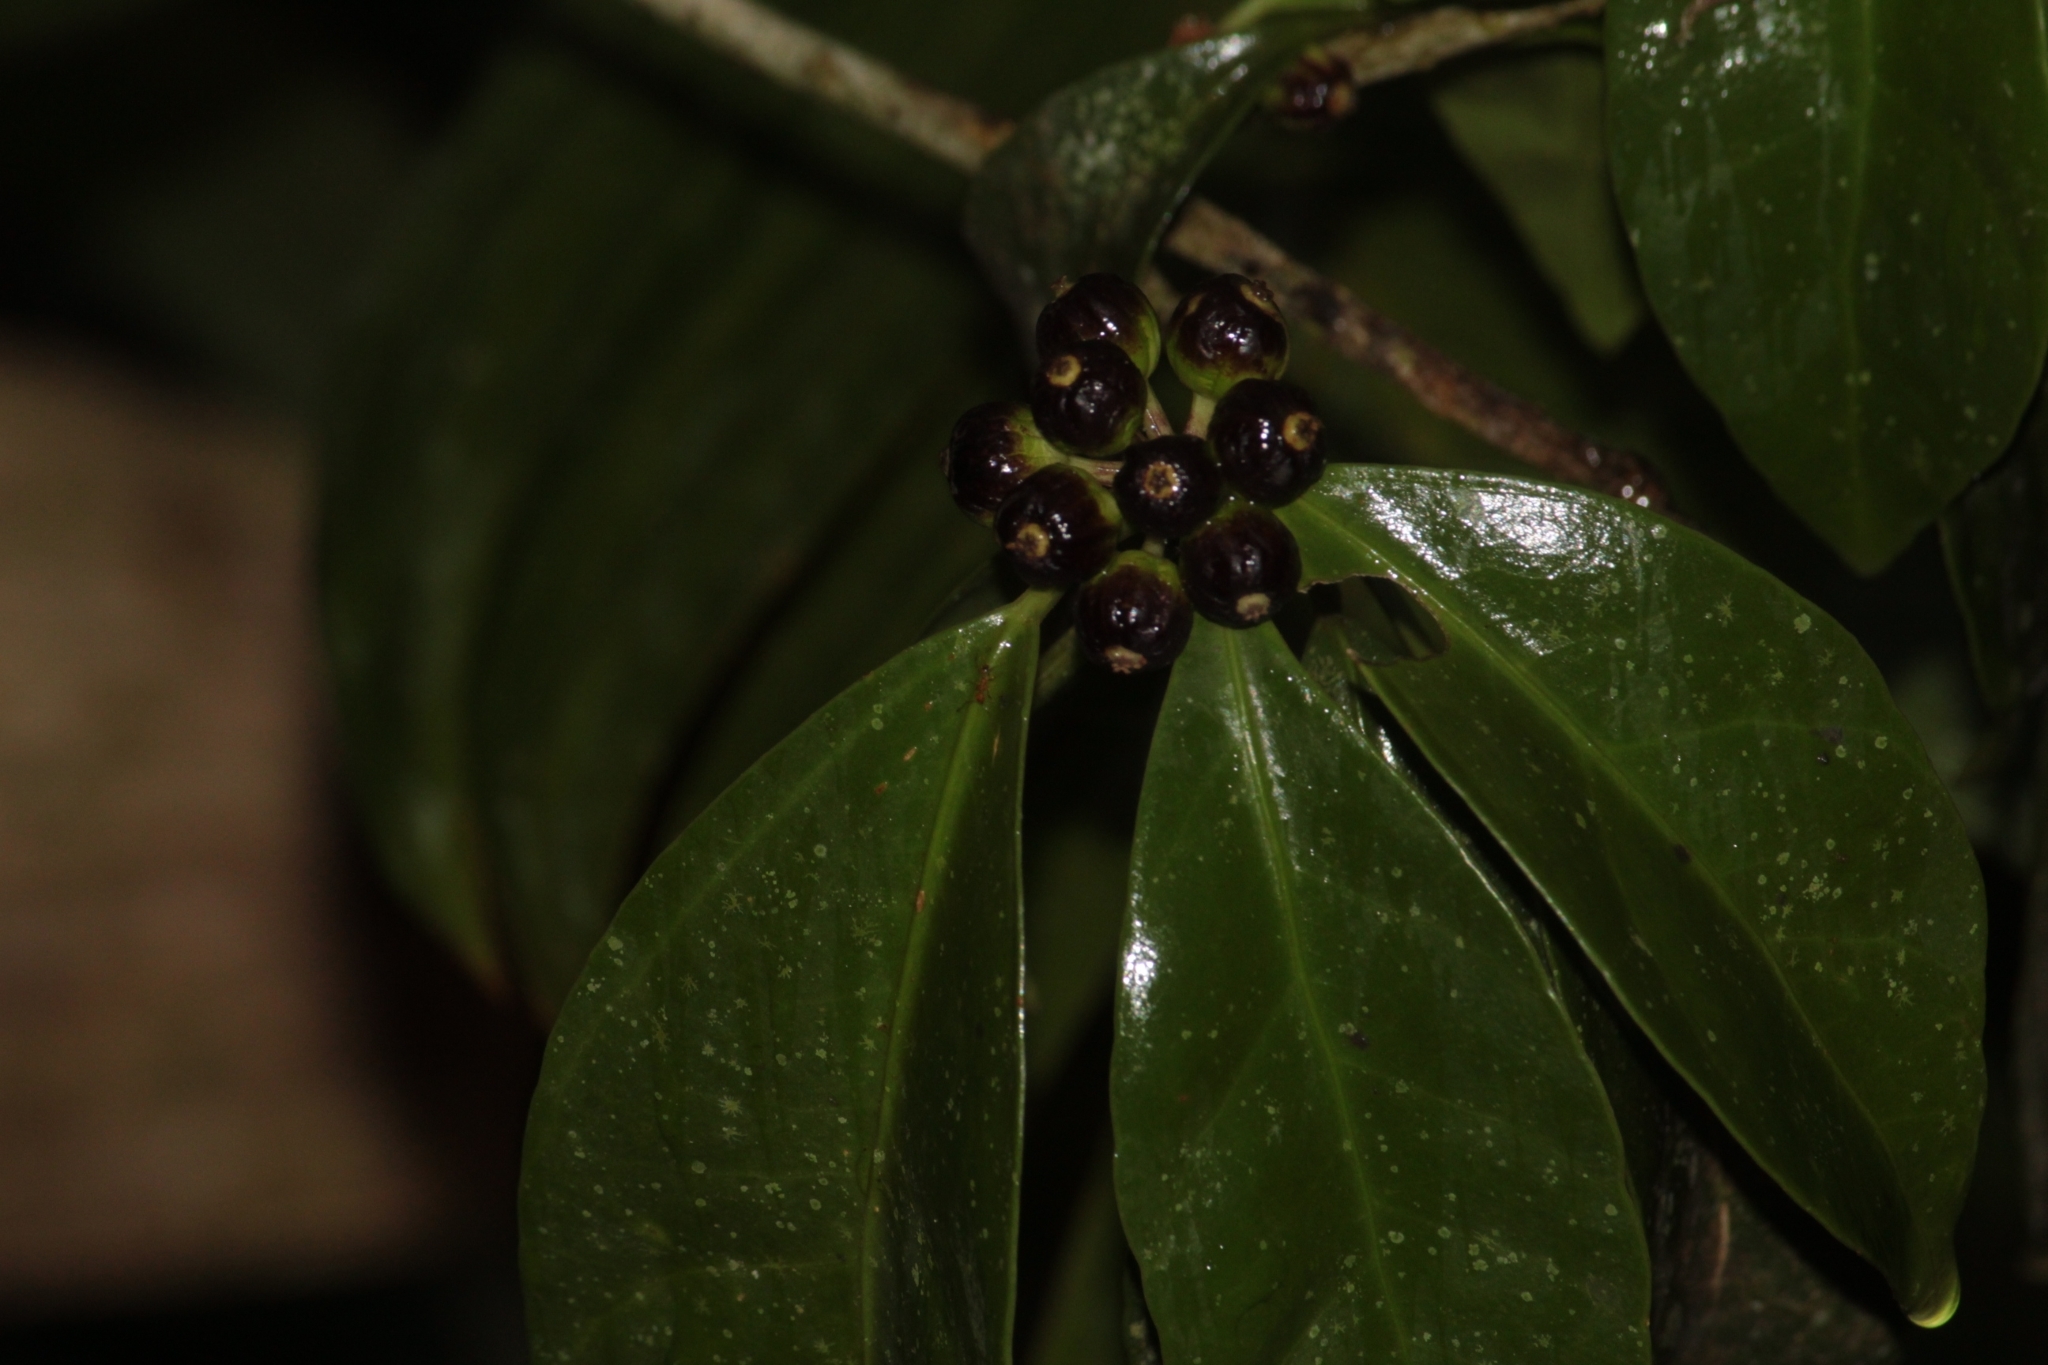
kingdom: Plantae
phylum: Tracheophyta
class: Magnoliopsida
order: Apiales
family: Araliaceae
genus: Dendropanax
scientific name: Dendropanax australis
